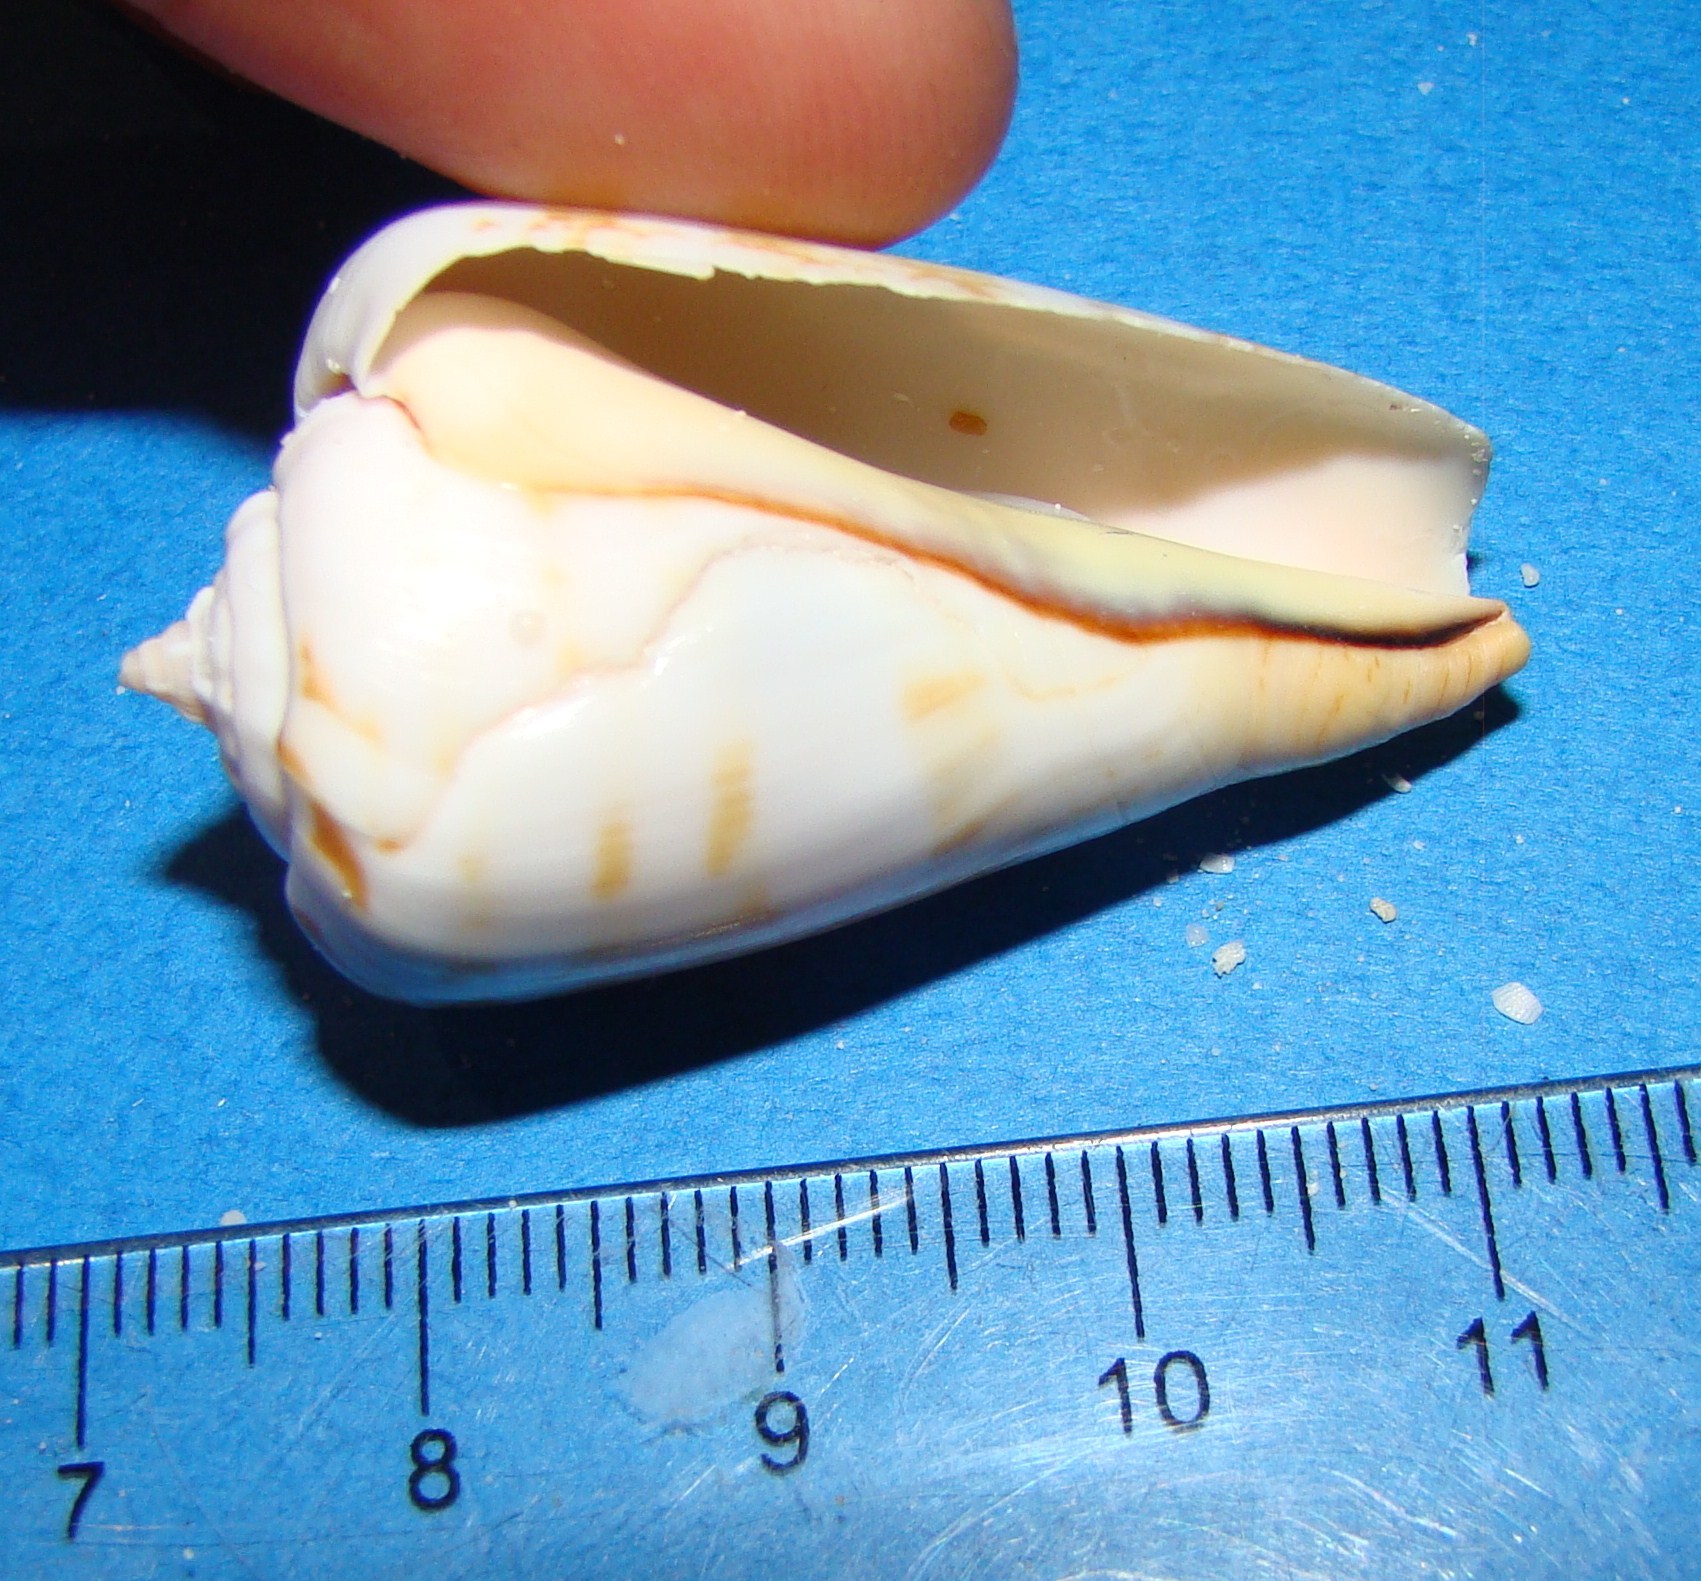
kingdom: Animalia
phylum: Mollusca
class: Gastropoda
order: Littorinimorpha
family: Strombidae
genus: Conomurex
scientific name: Conomurex luhuanus
